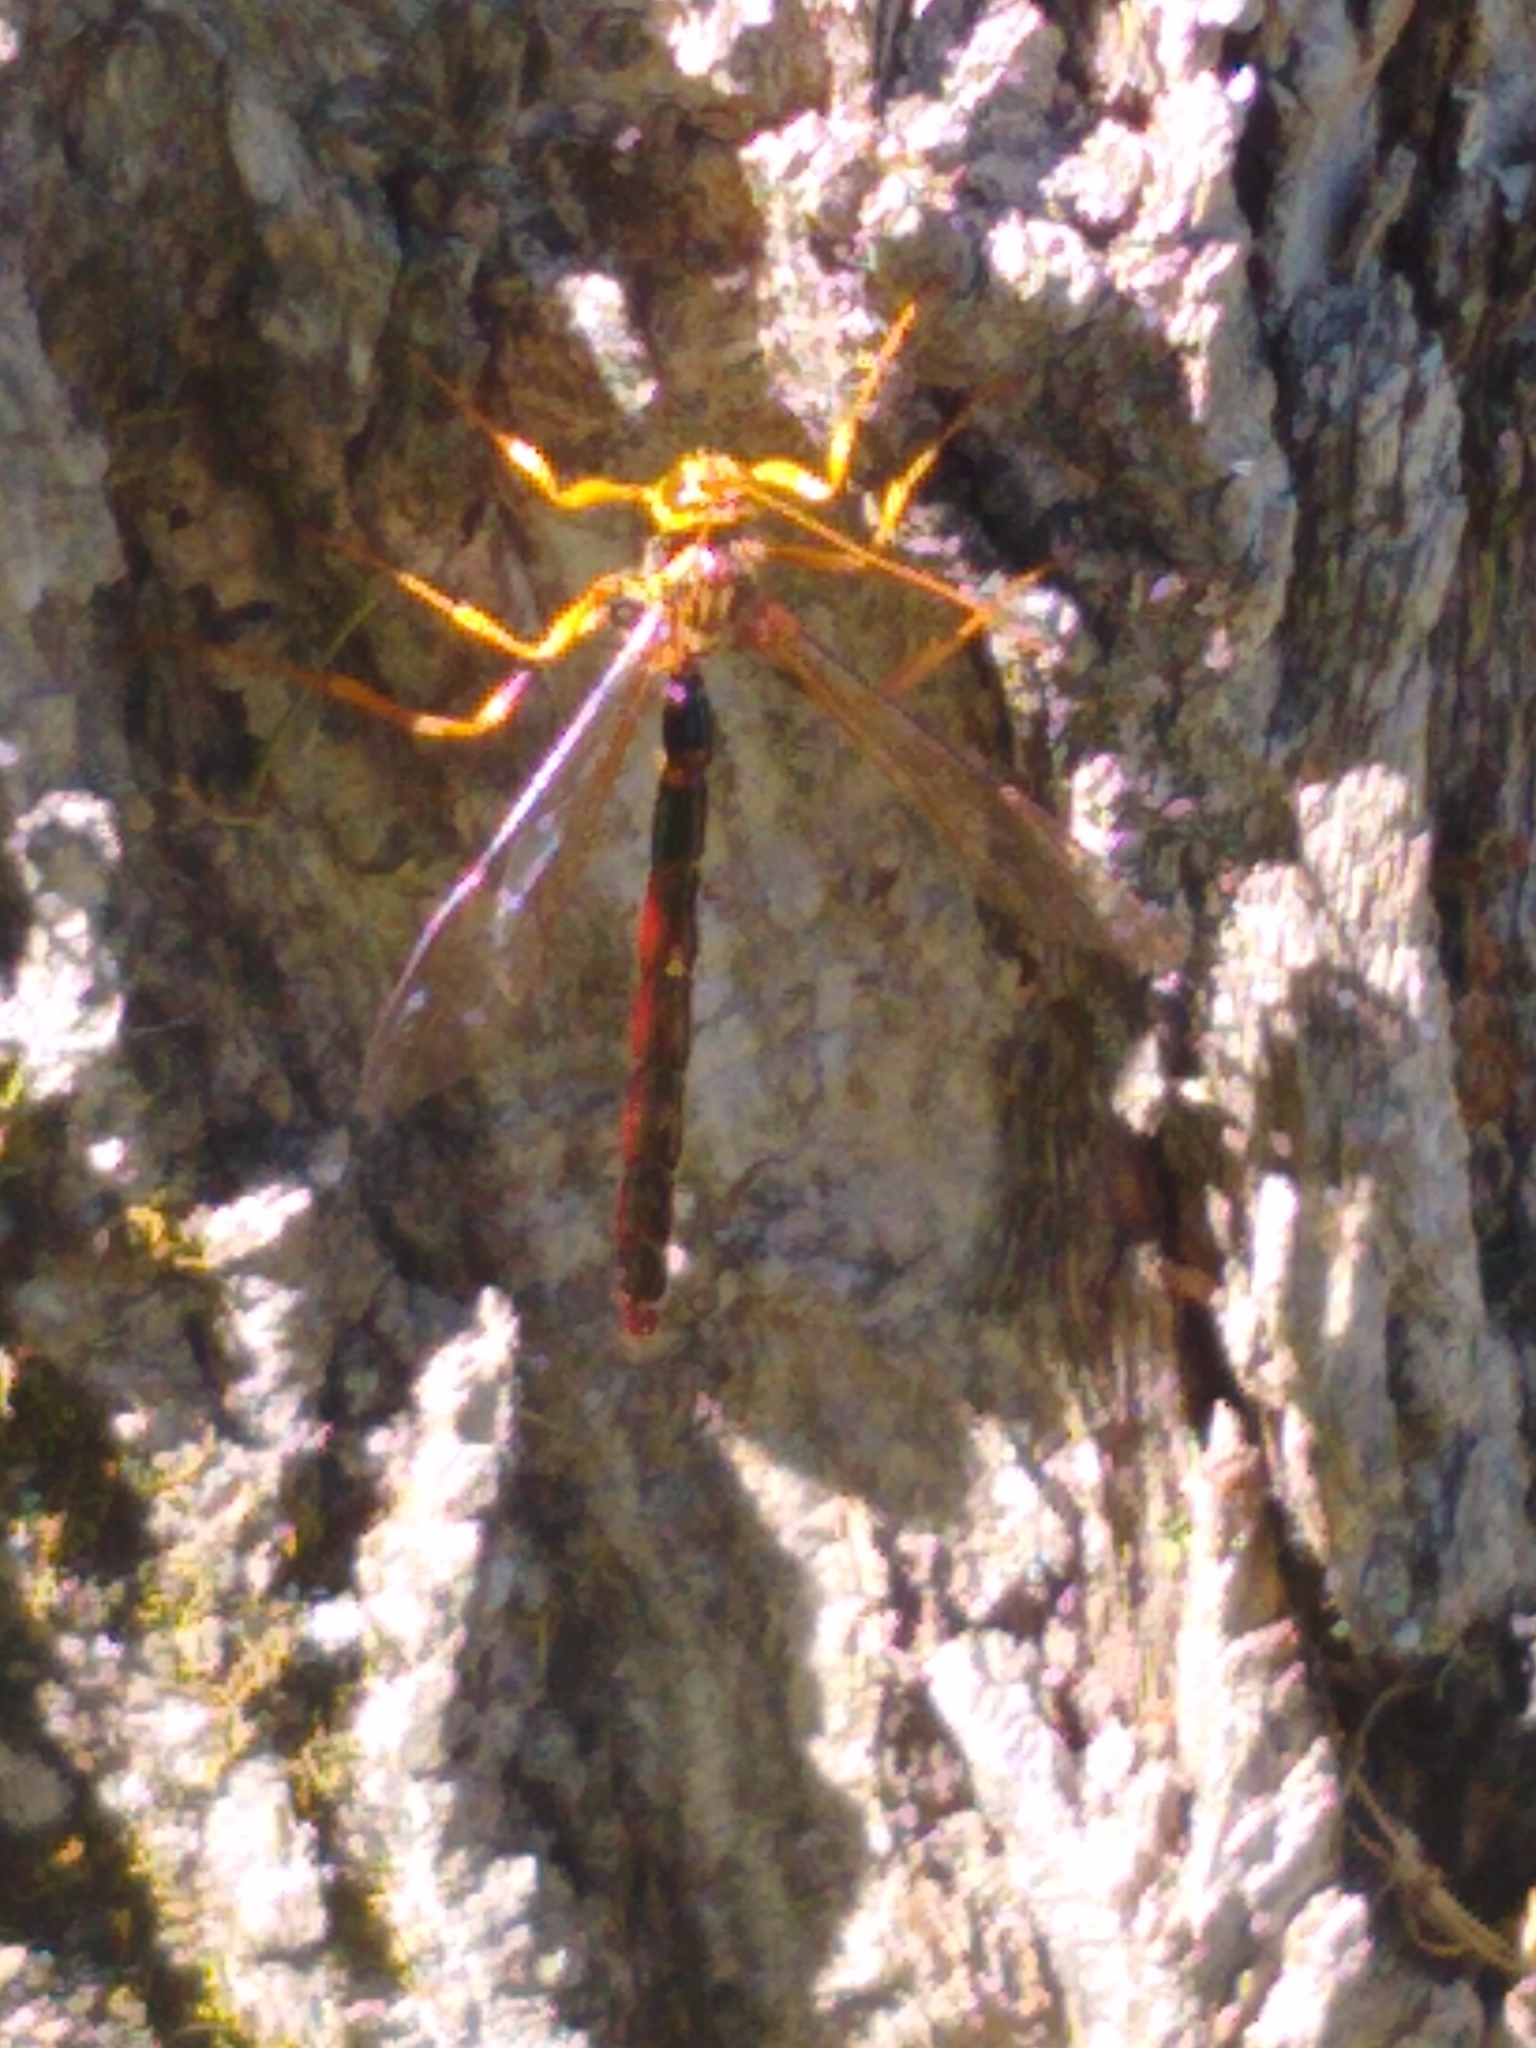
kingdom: Animalia
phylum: Arthropoda
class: Insecta
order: Hymenoptera
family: Ichneumonidae
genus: Megarhyssa
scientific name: Megarhyssa greenei
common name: Greene's giant ichneumonid wasp
